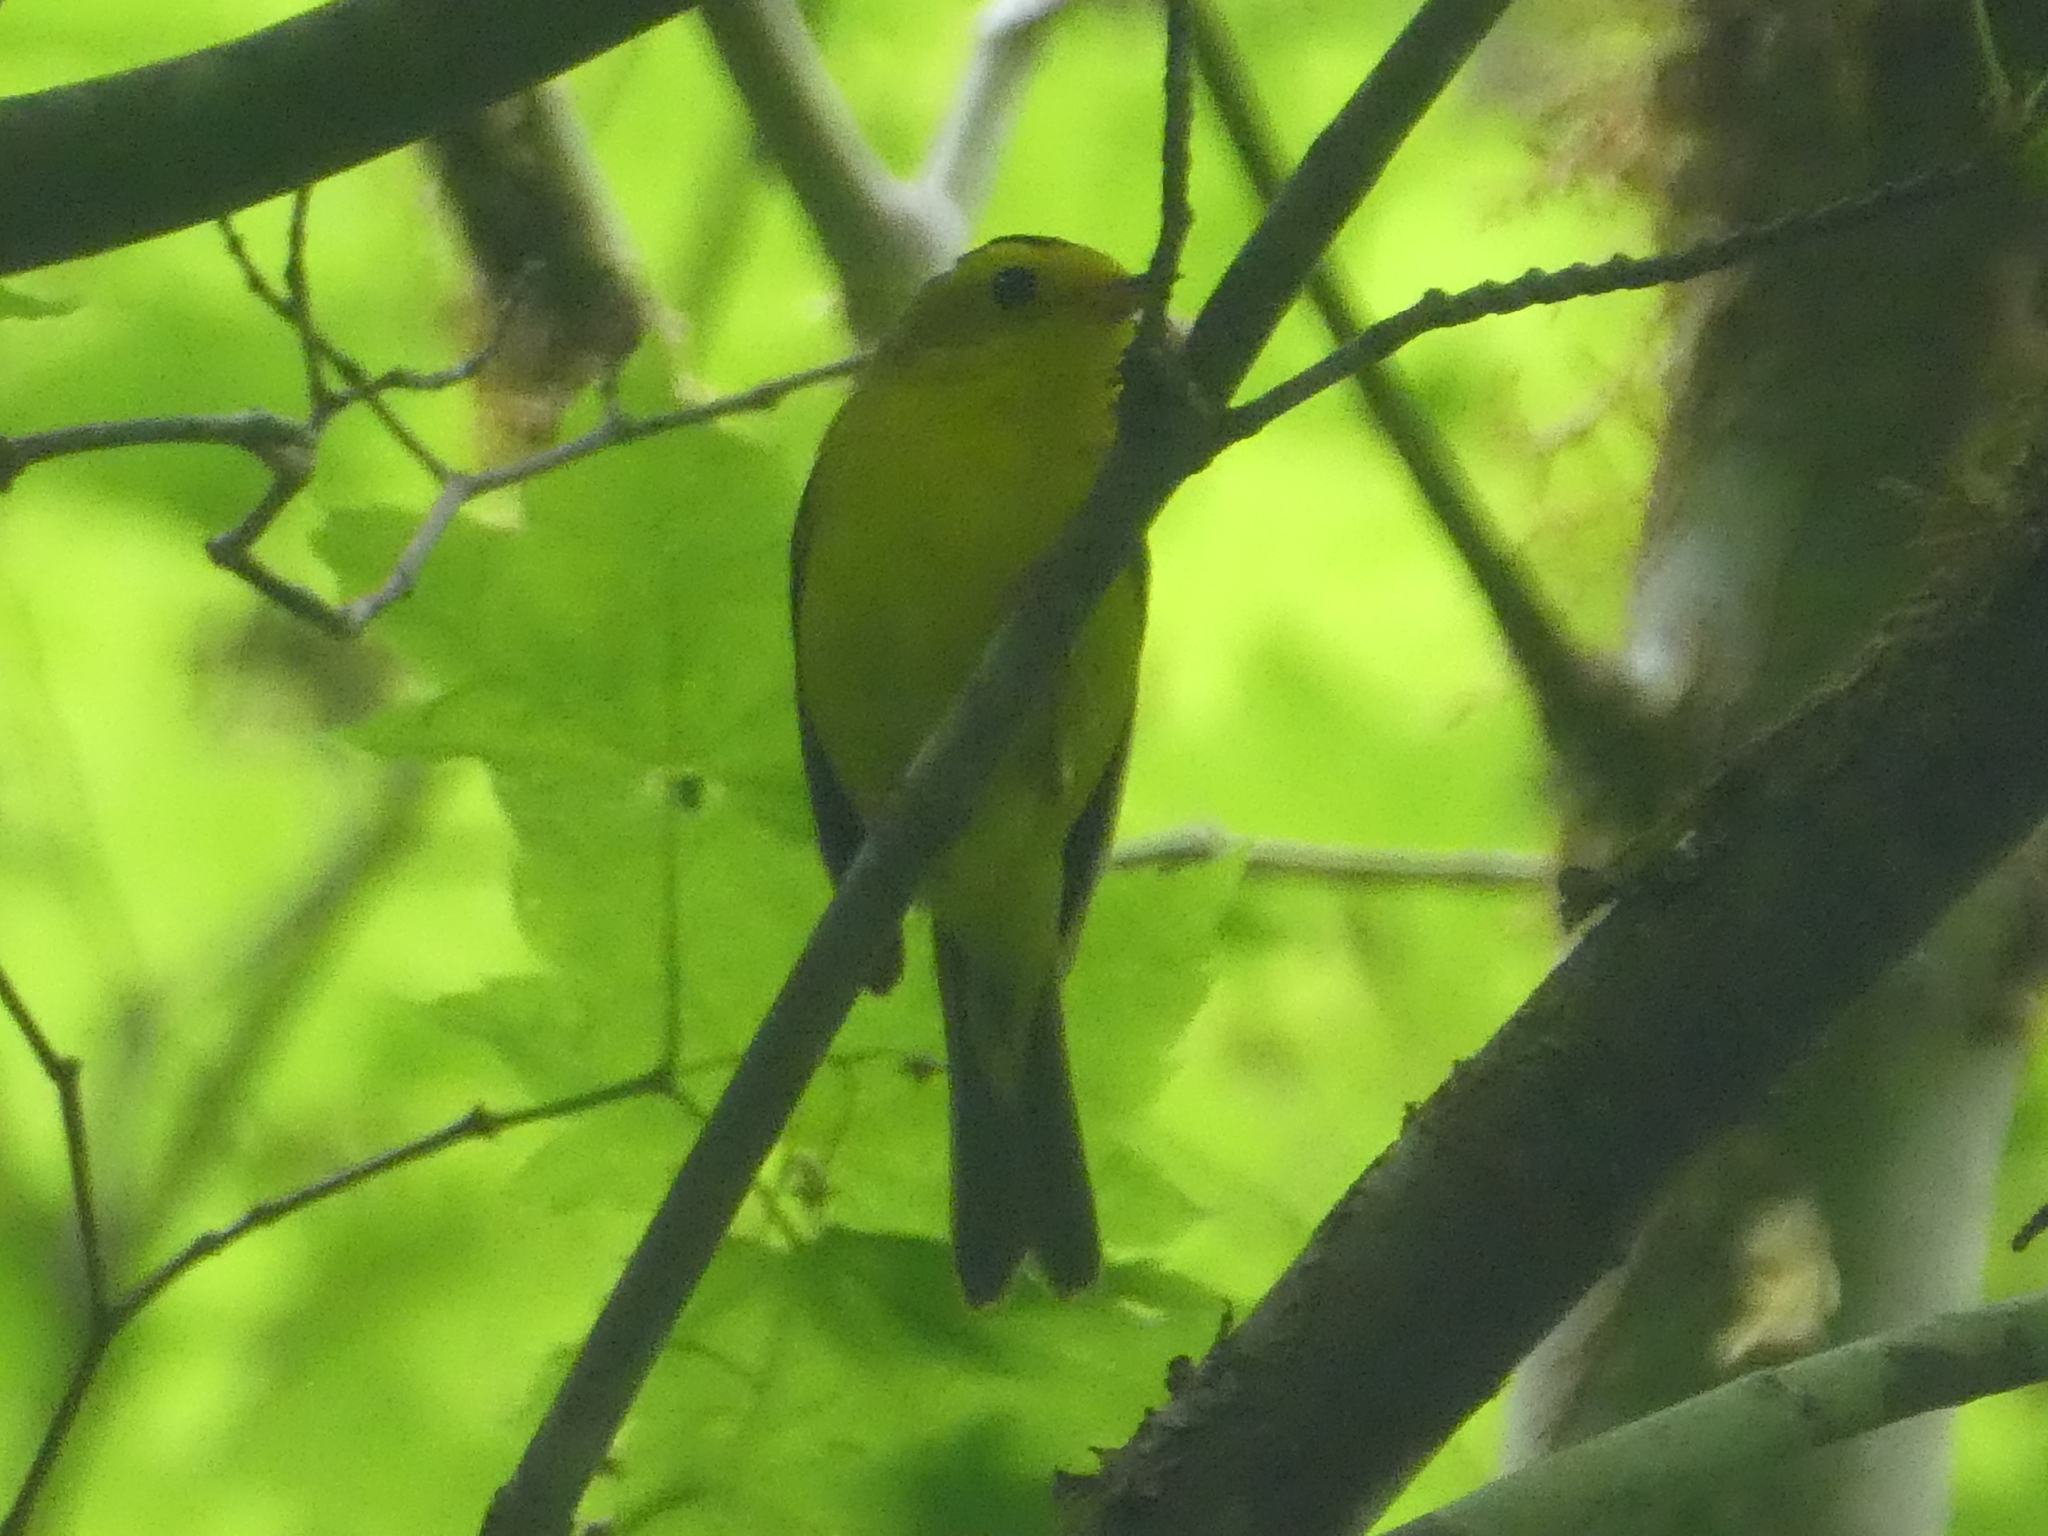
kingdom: Animalia
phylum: Chordata
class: Aves
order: Passeriformes
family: Parulidae
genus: Cardellina
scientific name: Cardellina pusilla
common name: Wilson's warbler
